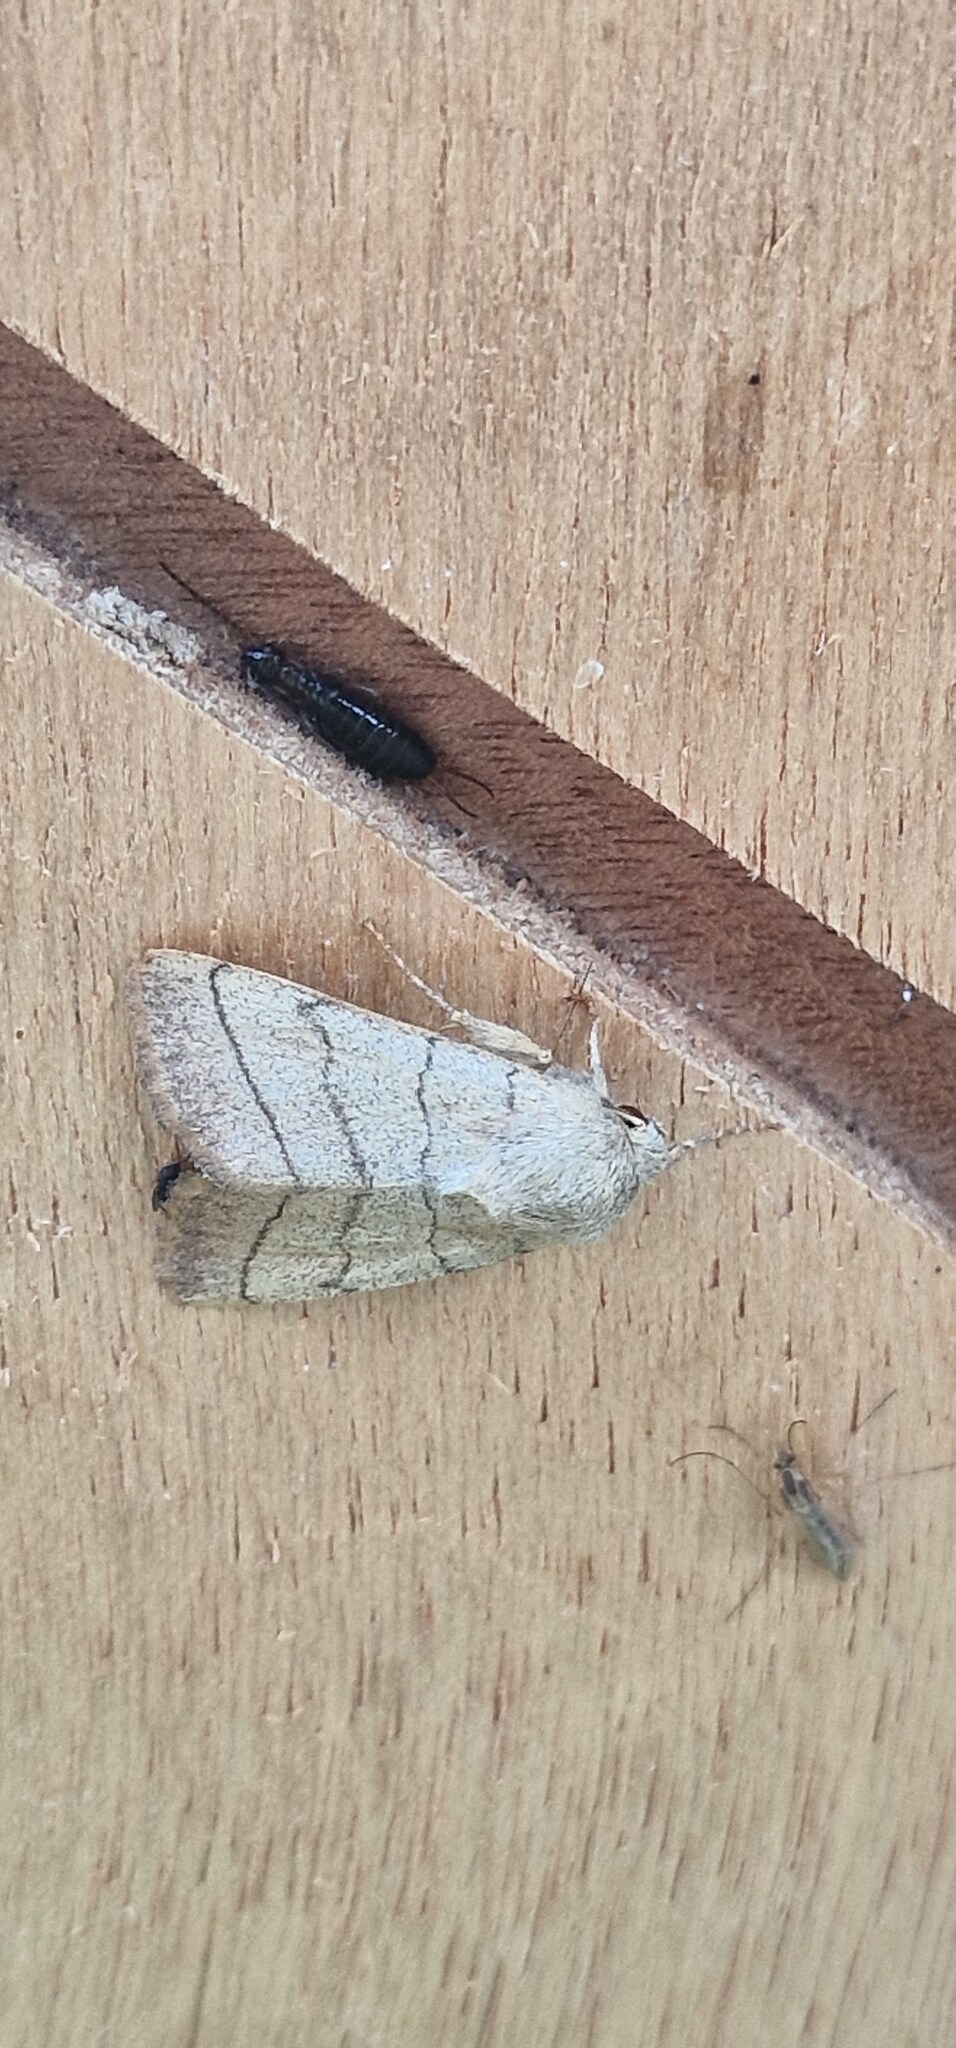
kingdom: Animalia
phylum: Arthropoda
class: Insecta
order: Lepidoptera
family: Noctuidae
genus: Charanyca
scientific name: Charanyca trigrammica
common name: Treble lines
